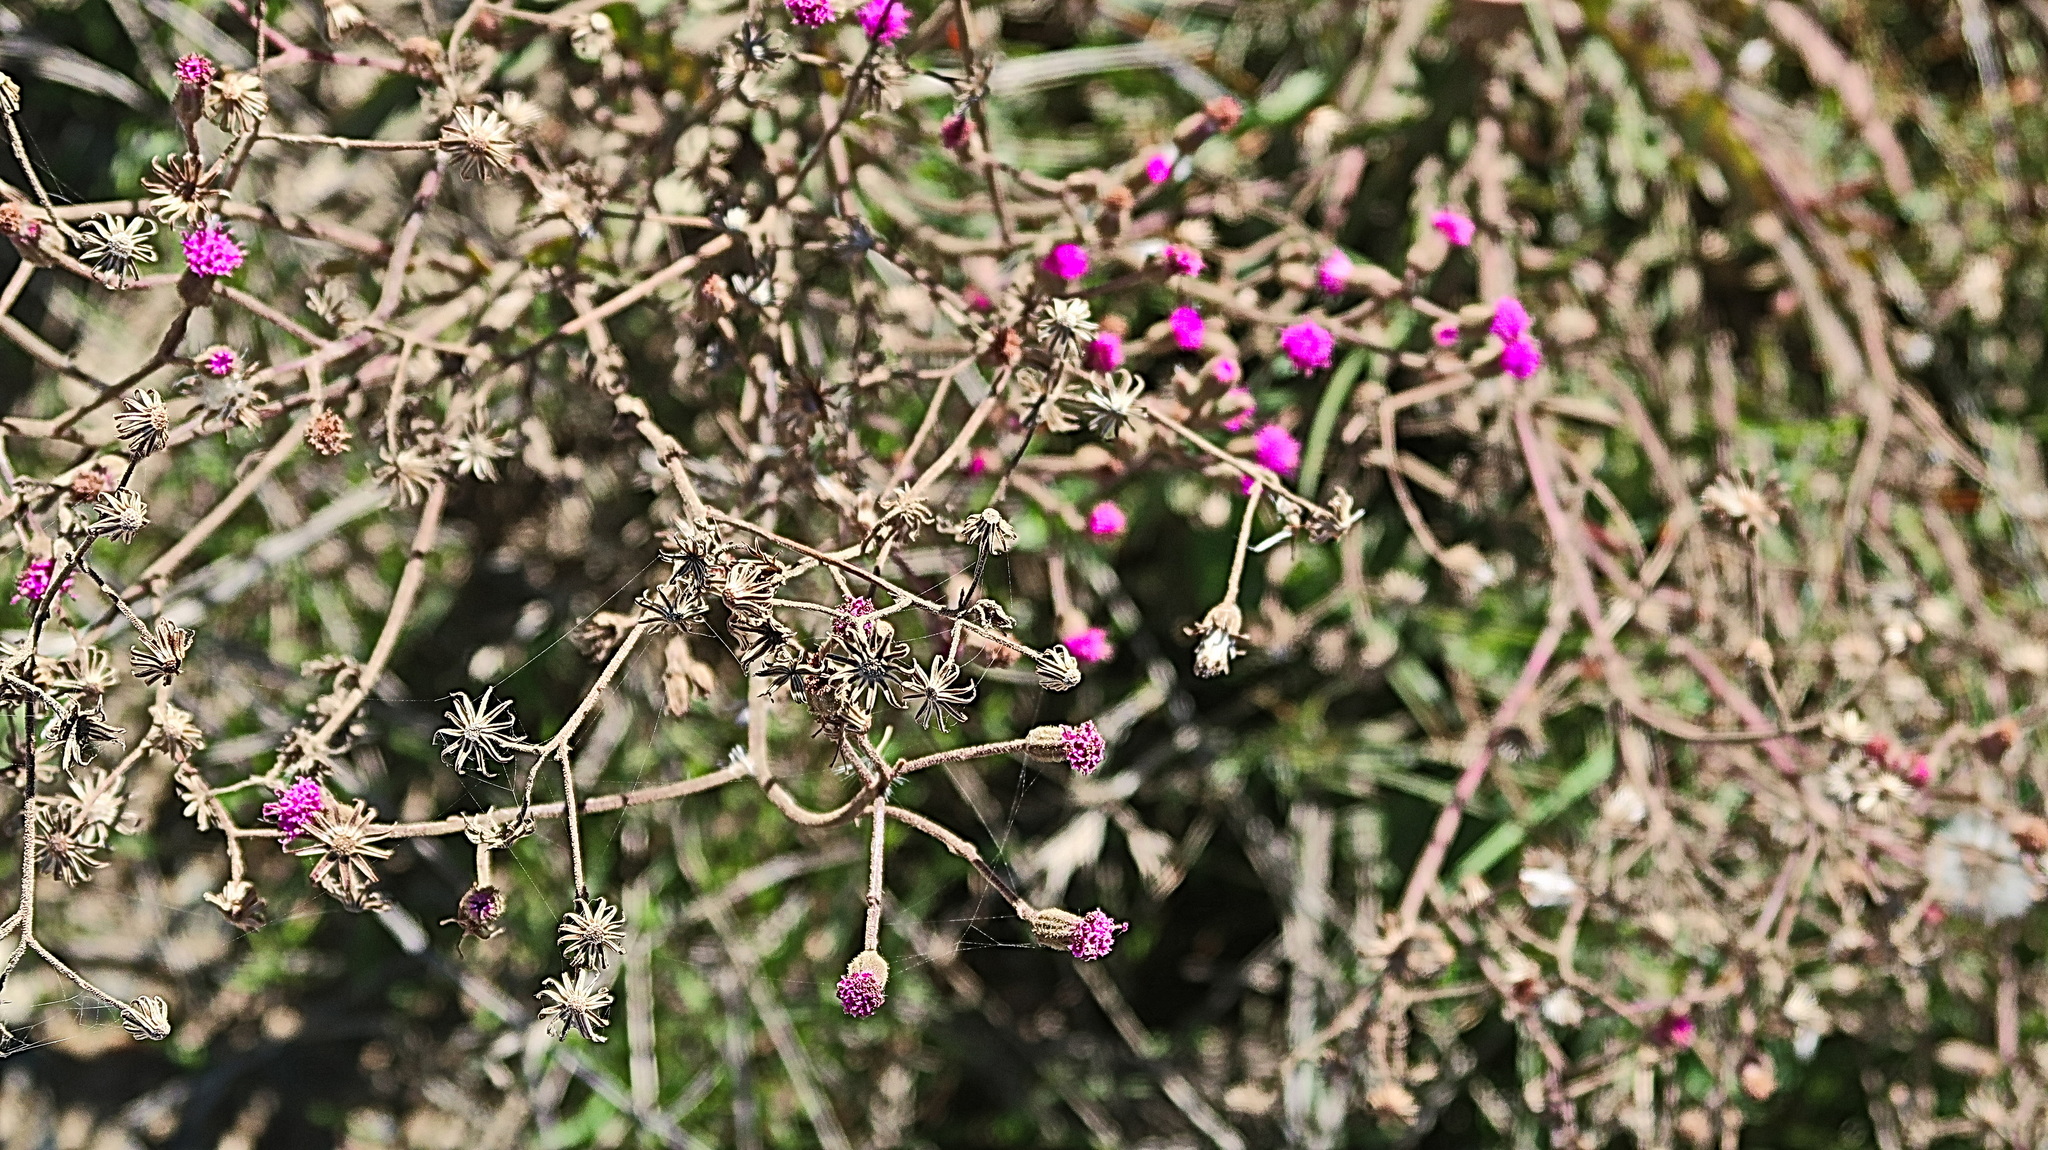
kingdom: Plantae
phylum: Tracheophyta
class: Magnoliopsida
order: Asterales
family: Asteraceae
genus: Senecio
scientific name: Senecio purpureus
